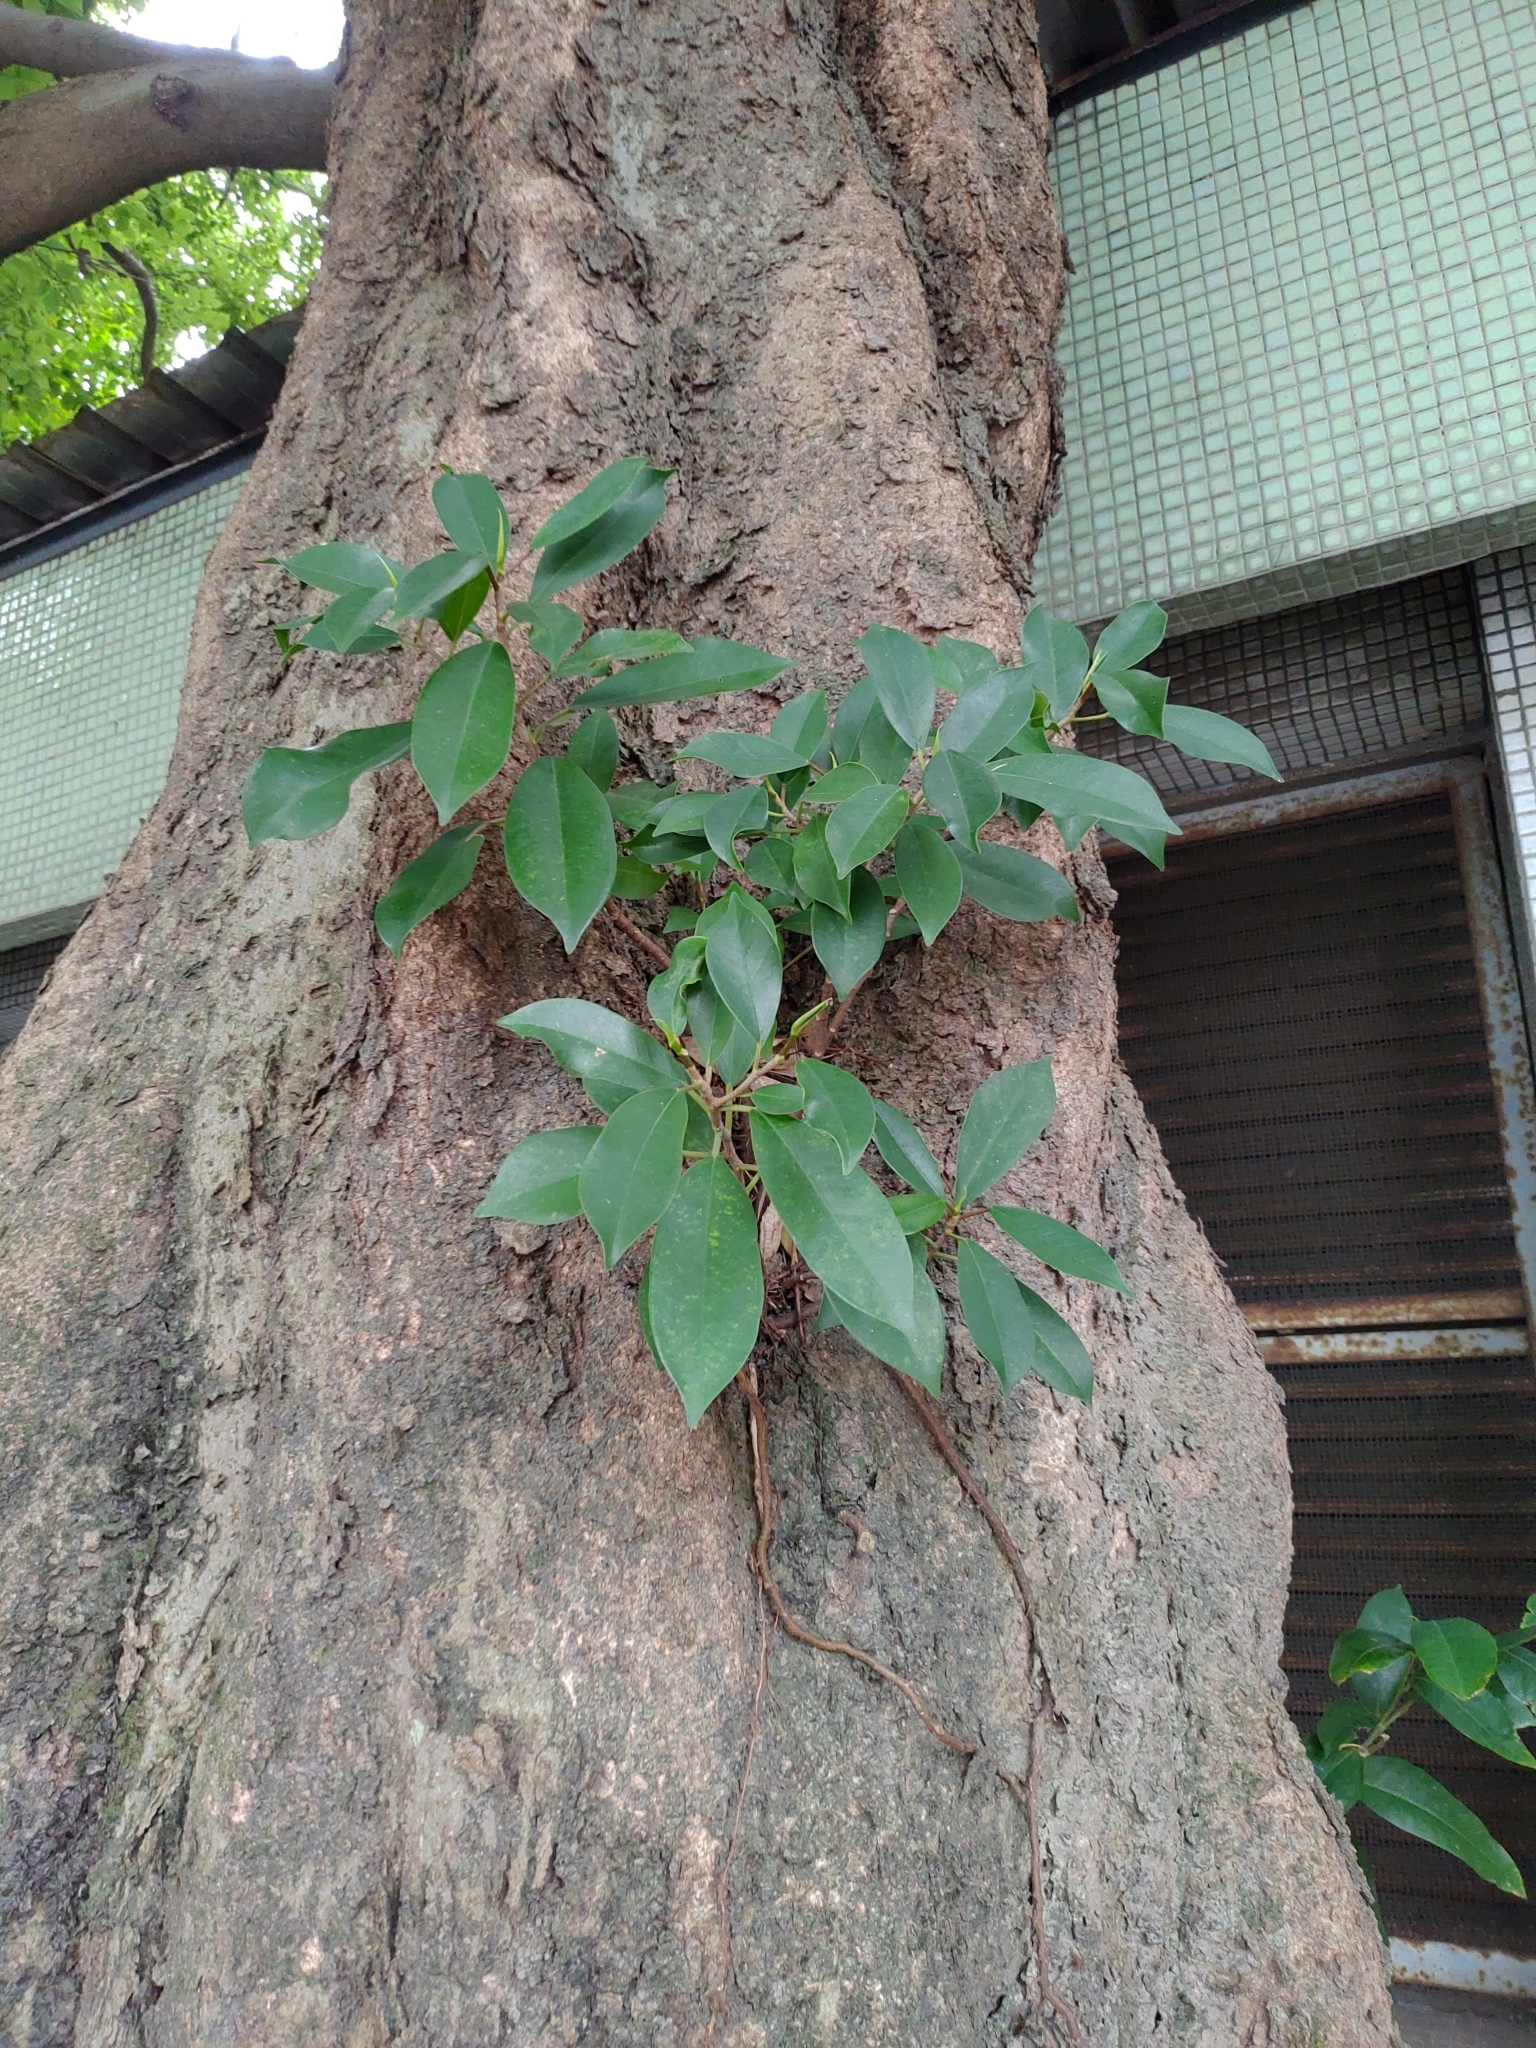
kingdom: Plantae
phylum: Tracheophyta
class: Magnoliopsida
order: Rosales
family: Moraceae
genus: Ficus
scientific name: Ficus microcarpa
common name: Chinese banyan
